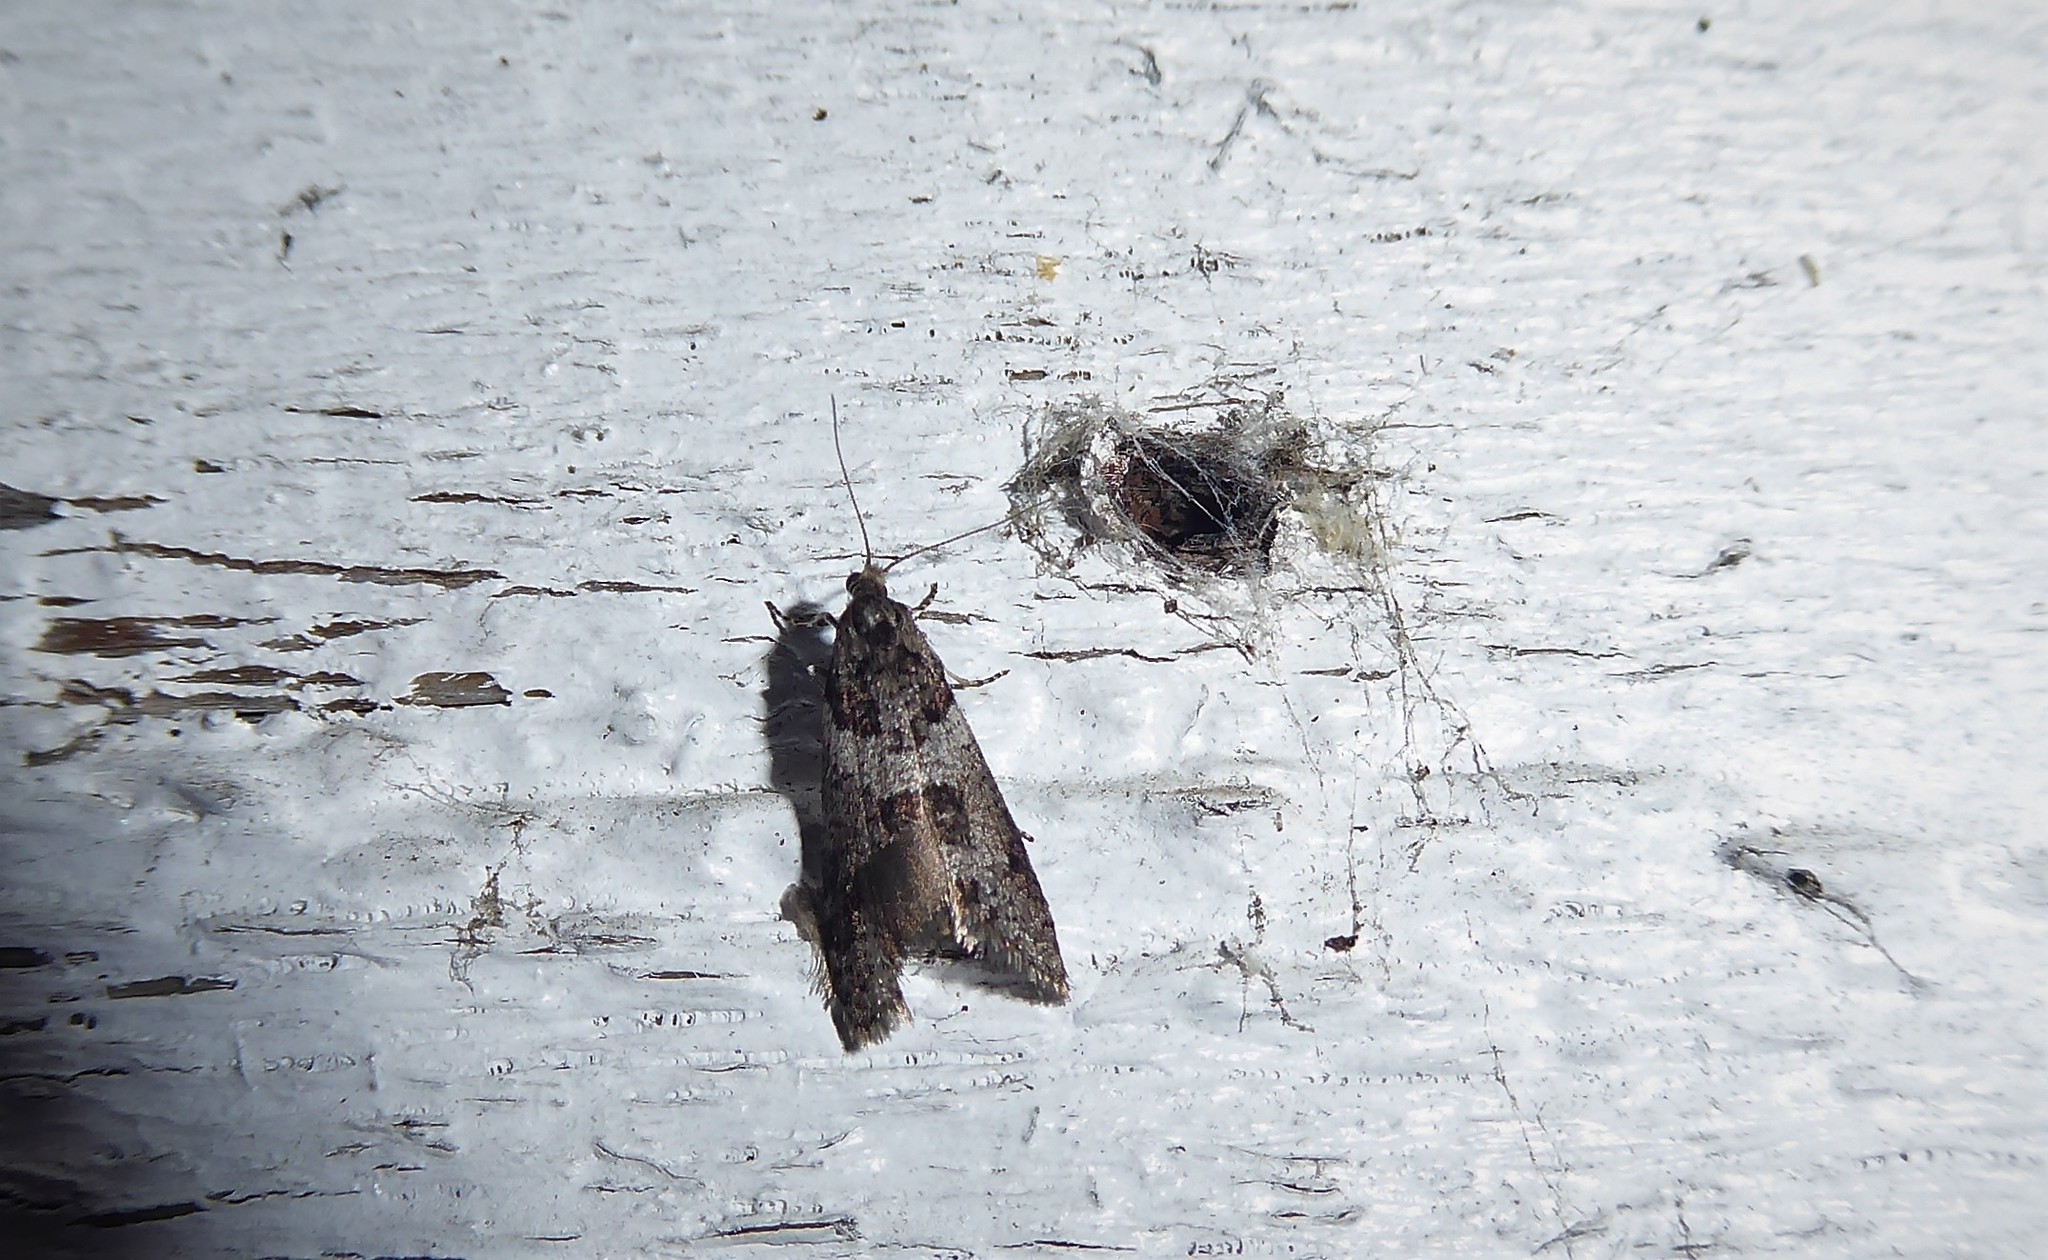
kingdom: Animalia
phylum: Arthropoda
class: Insecta
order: Lepidoptera
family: Psychidae
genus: Lepidoscia
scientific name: Lepidoscia heliochares
